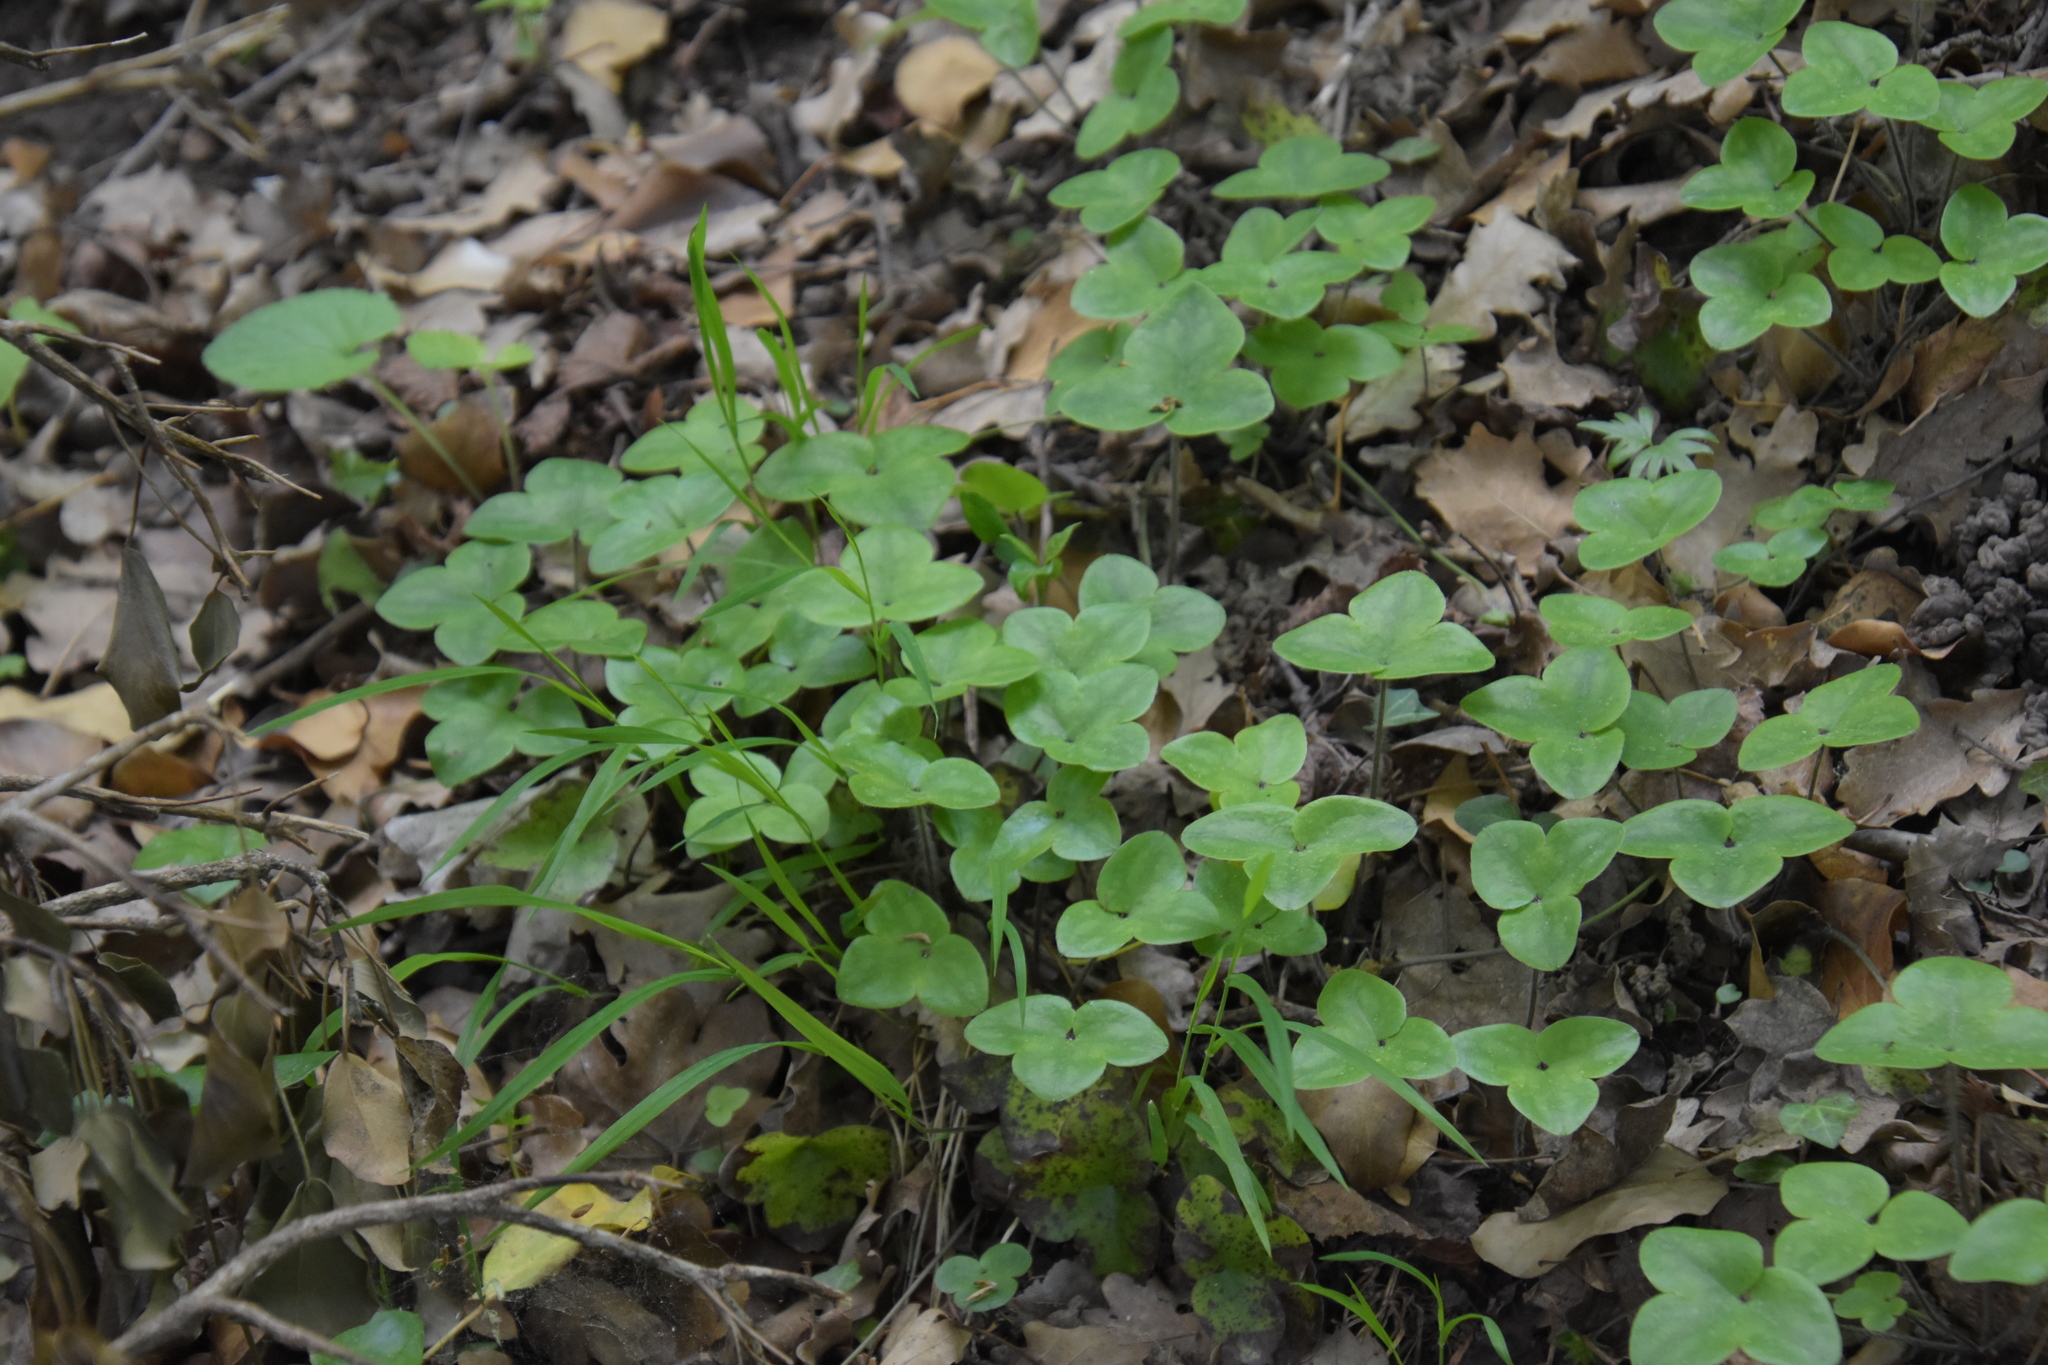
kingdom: Plantae
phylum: Tracheophyta
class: Magnoliopsida
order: Ranunculales
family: Ranunculaceae
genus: Hepatica
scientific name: Hepatica nobilis
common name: Liverleaf
